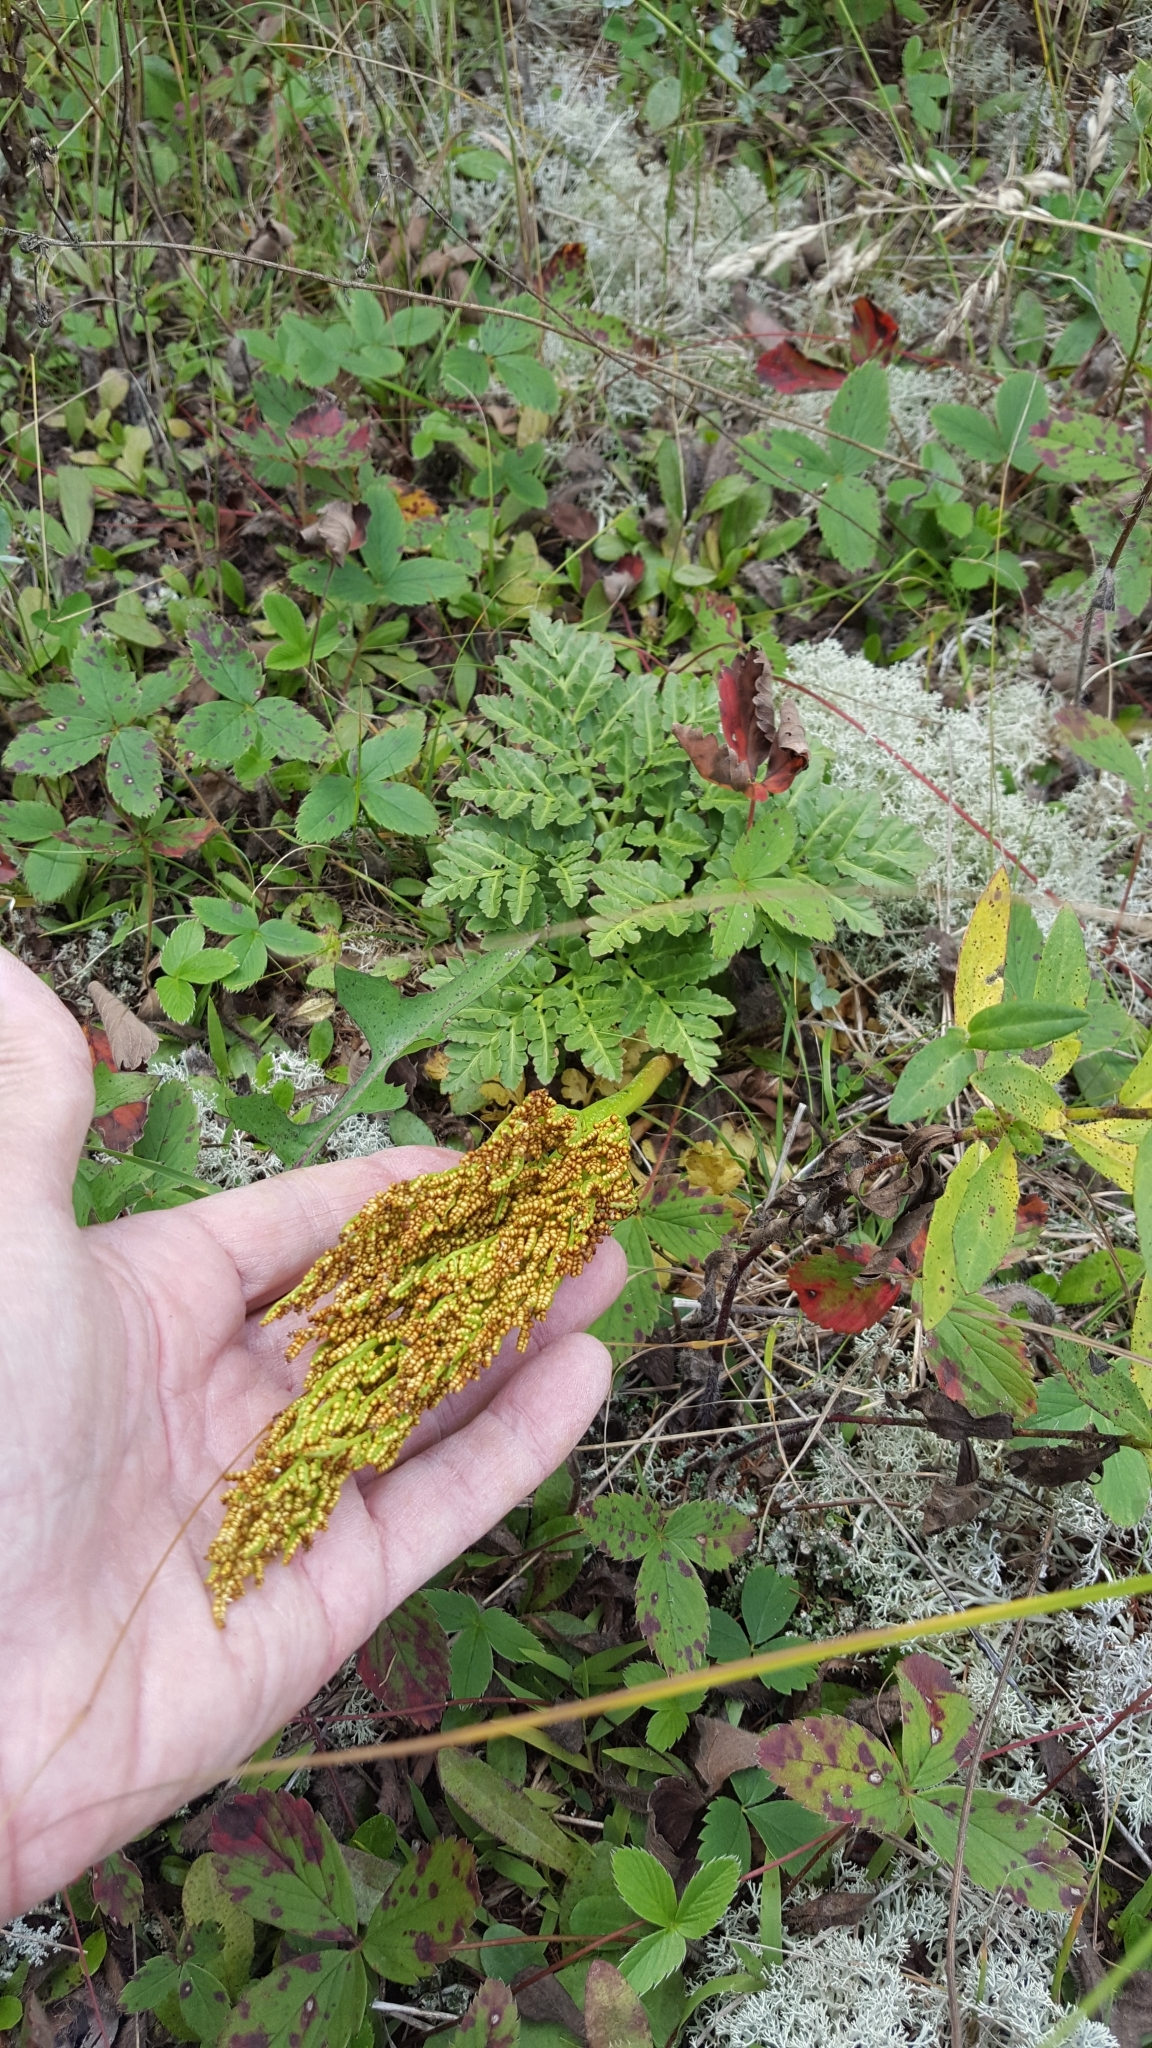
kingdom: Plantae
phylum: Tracheophyta
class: Polypodiopsida
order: Ophioglossales
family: Ophioglossaceae
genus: Sceptridium
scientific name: Sceptridium multifidum
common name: Leathery grape fern
